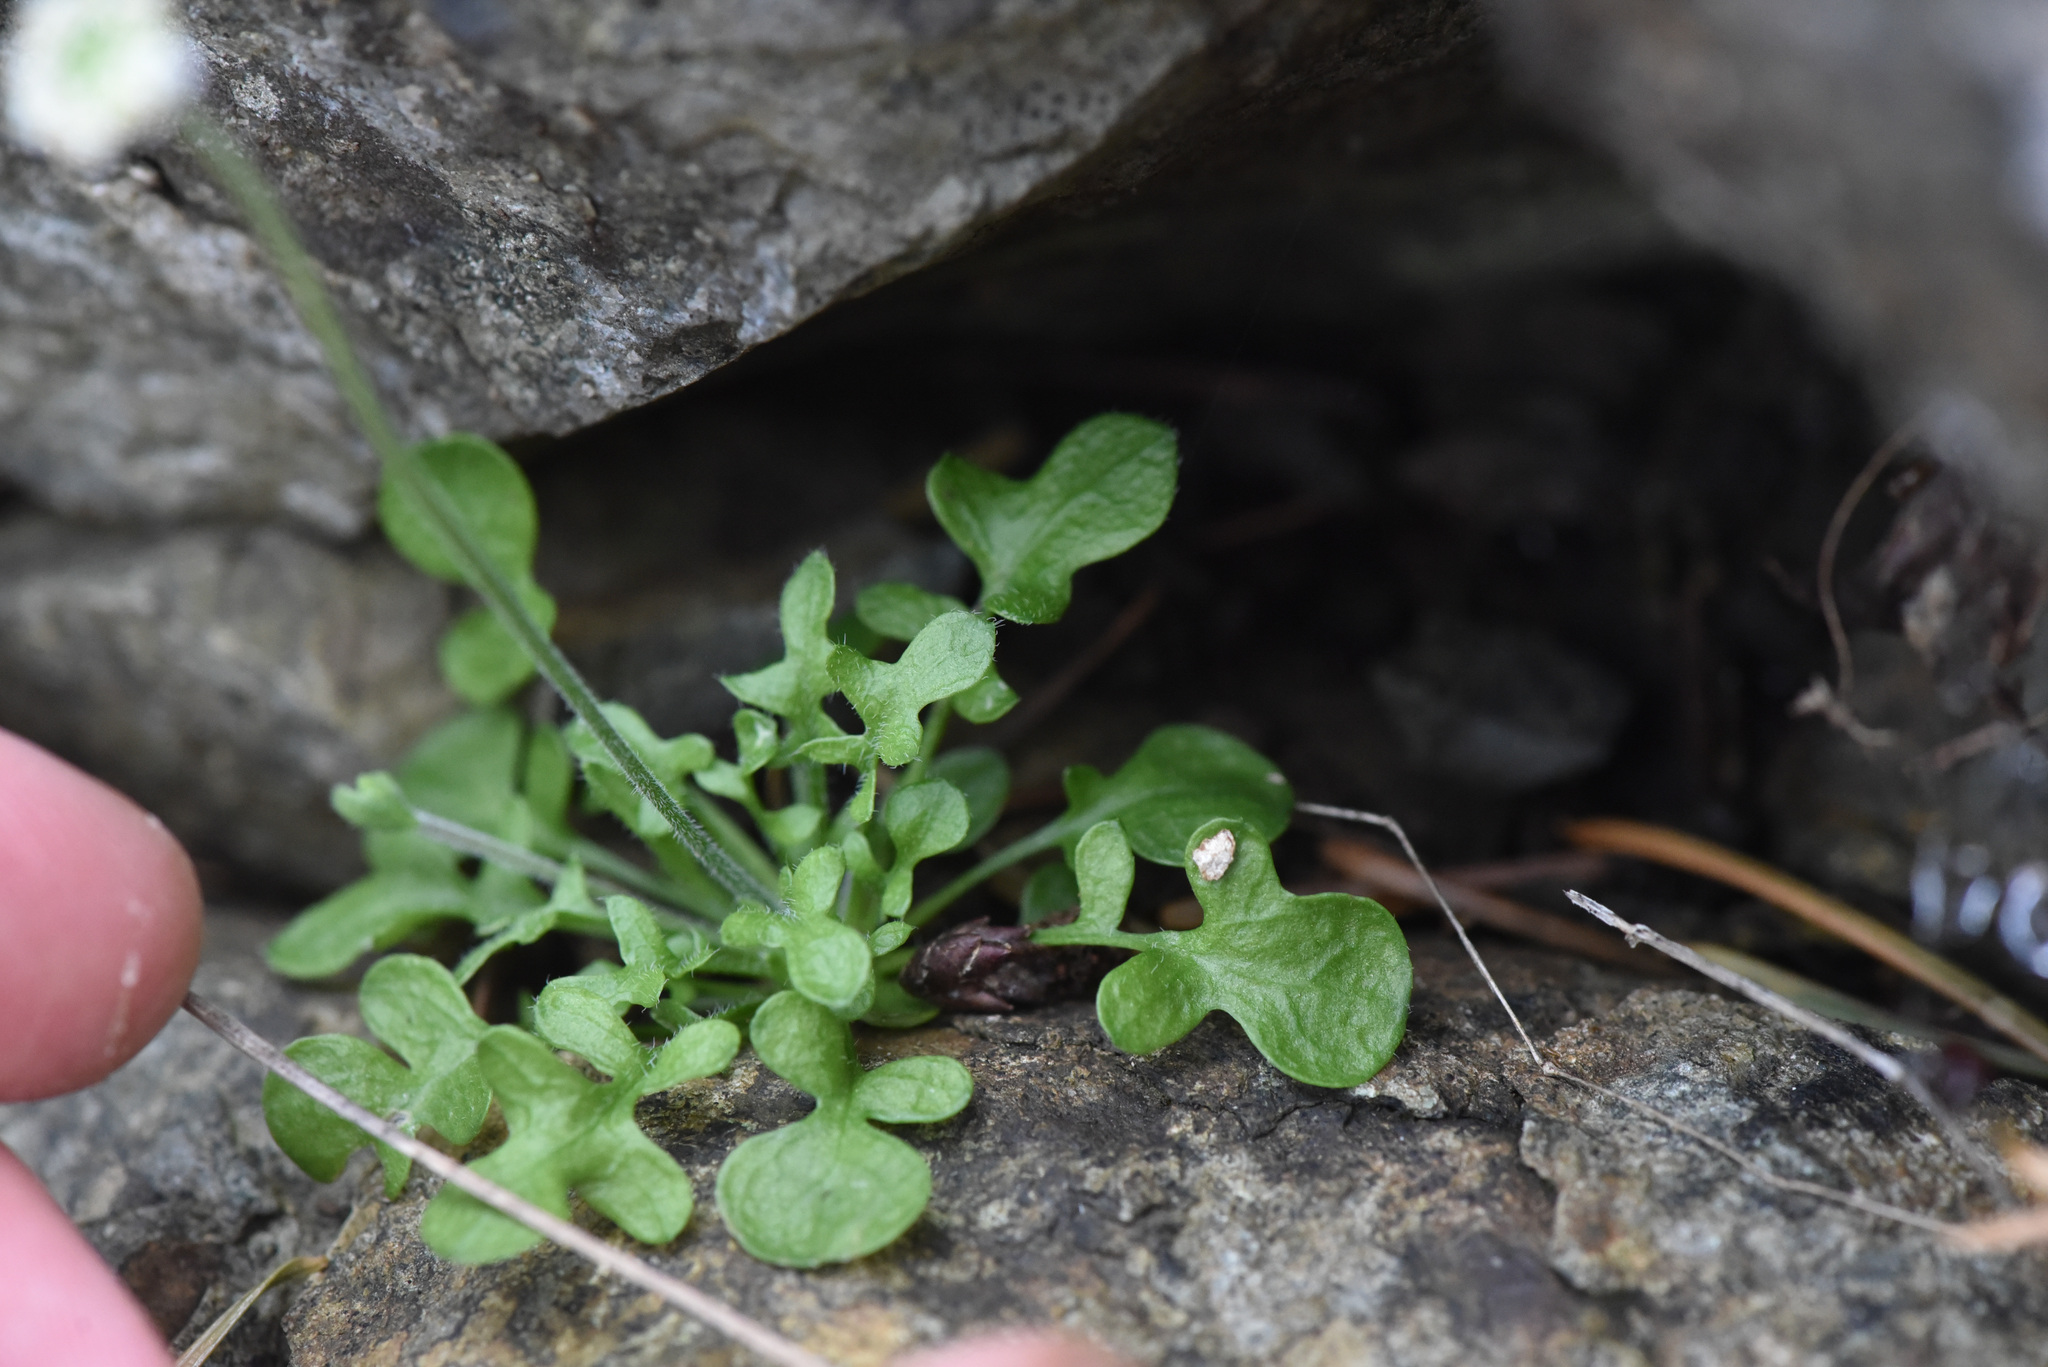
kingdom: Plantae
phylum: Tracheophyta
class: Magnoliopsida
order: Brassicales
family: Brassicaceae
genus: Teesdalia
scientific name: Teesdalia nudicaulis
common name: Shepherd's cress
